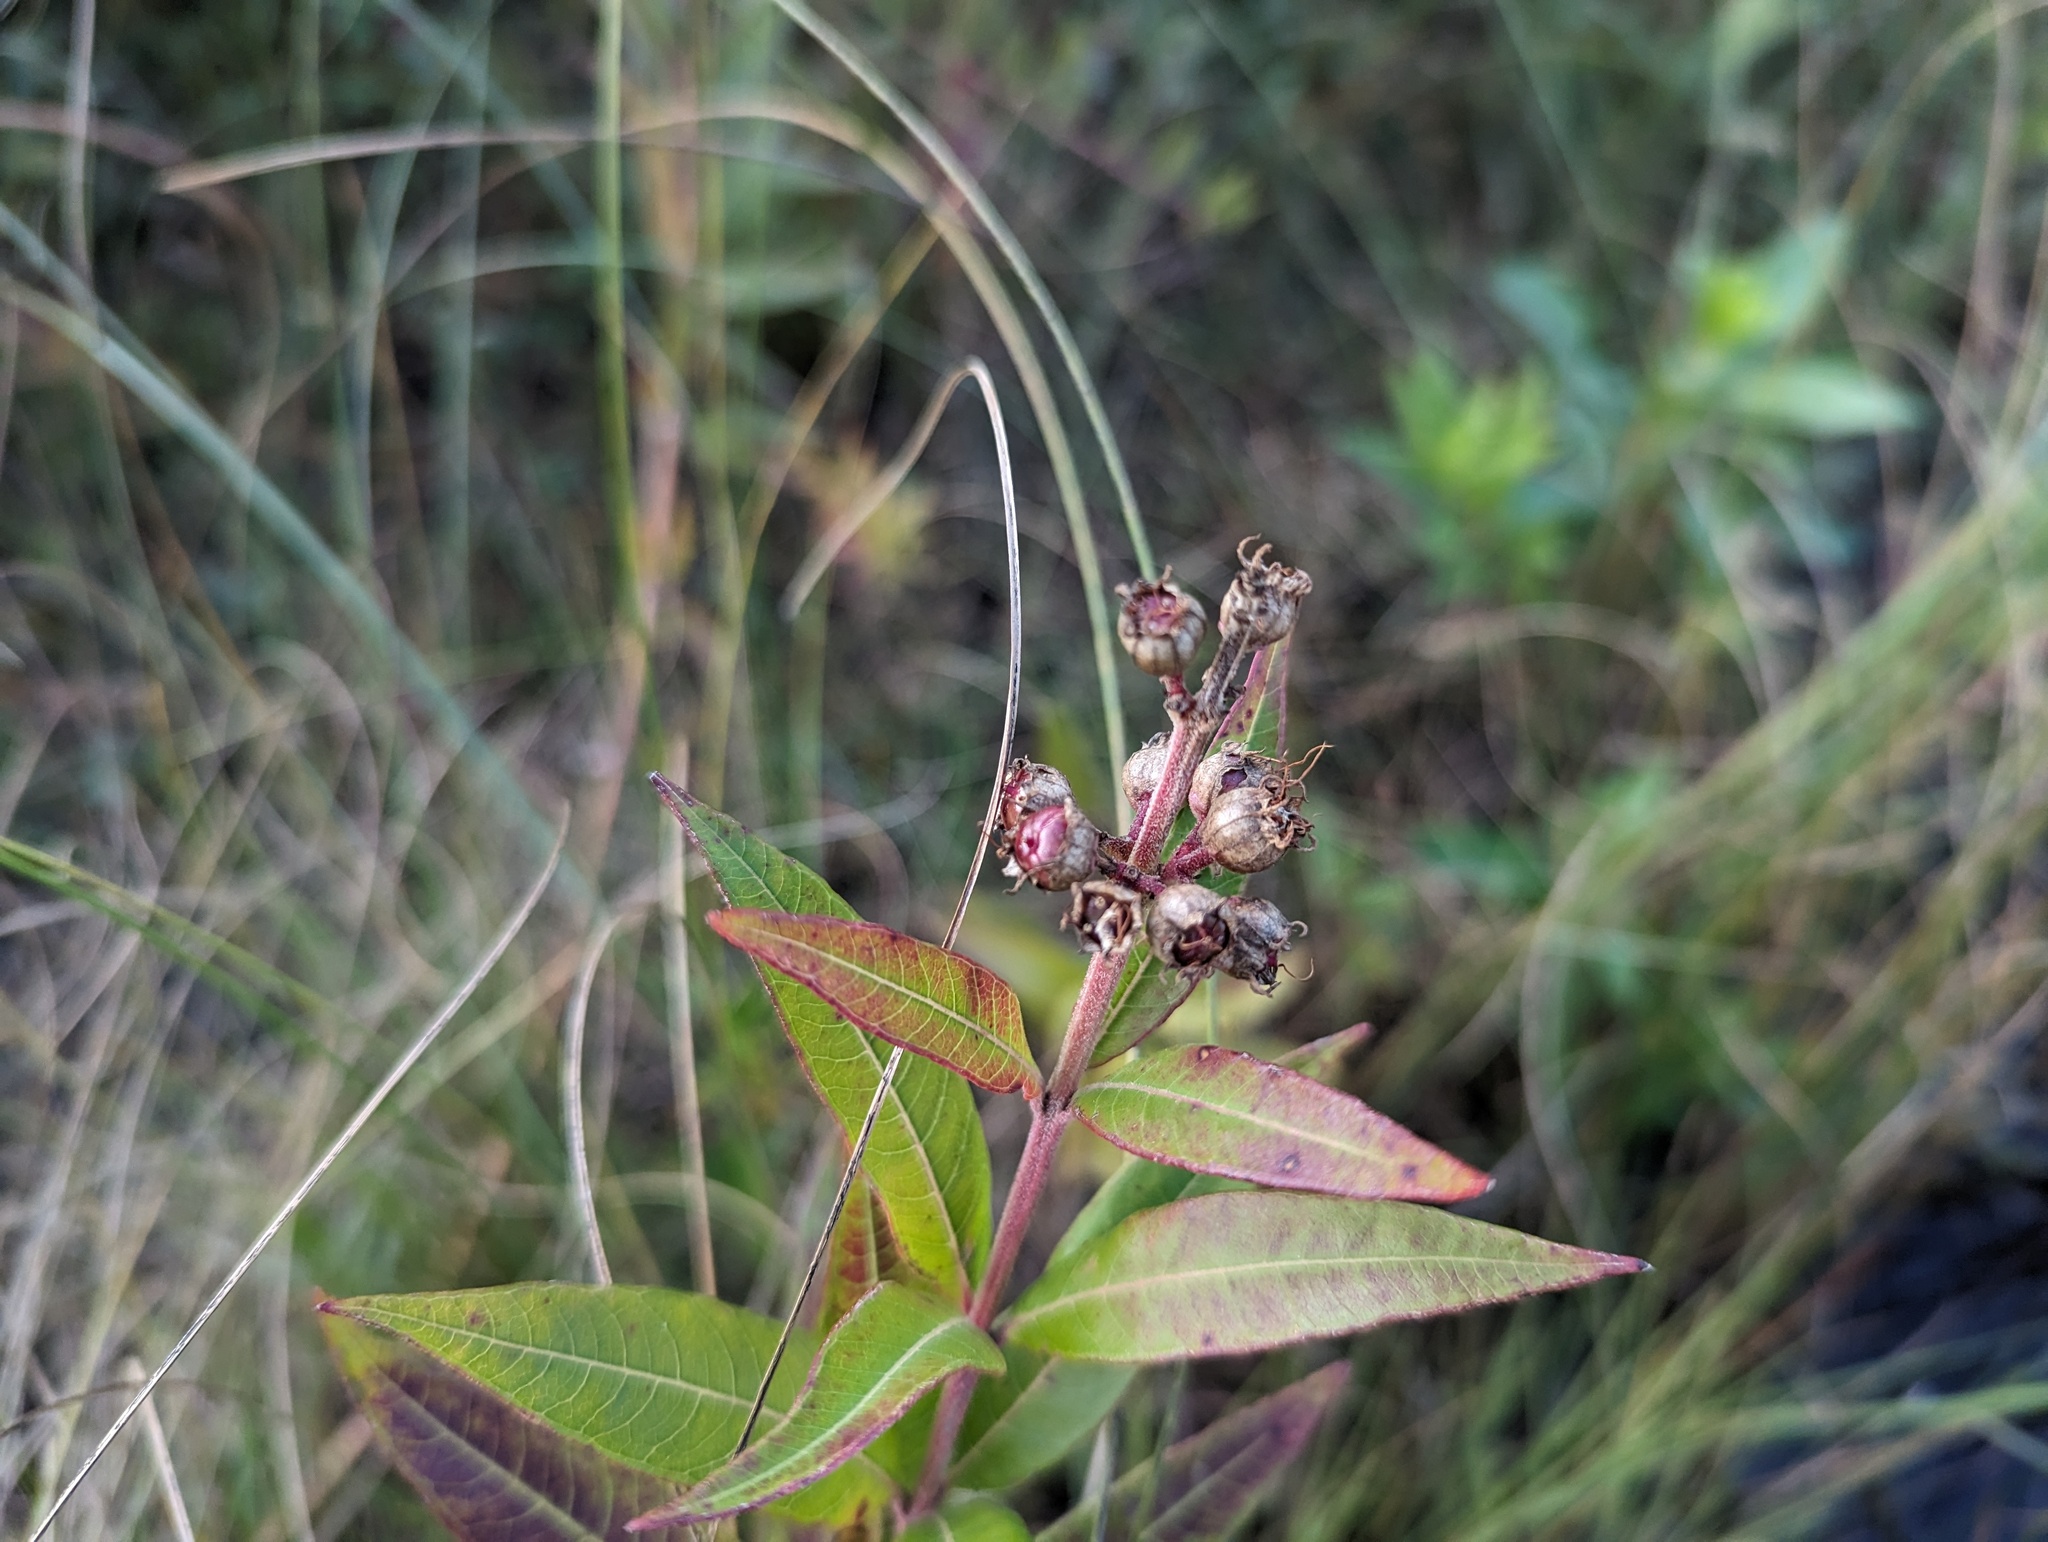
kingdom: Plantae
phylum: Tracheophyta
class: Magnoliopsida
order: Myrtales
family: Lythraceae
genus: Decodon
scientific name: Decodon verticillatus
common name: Hairy swamp loosestrife
